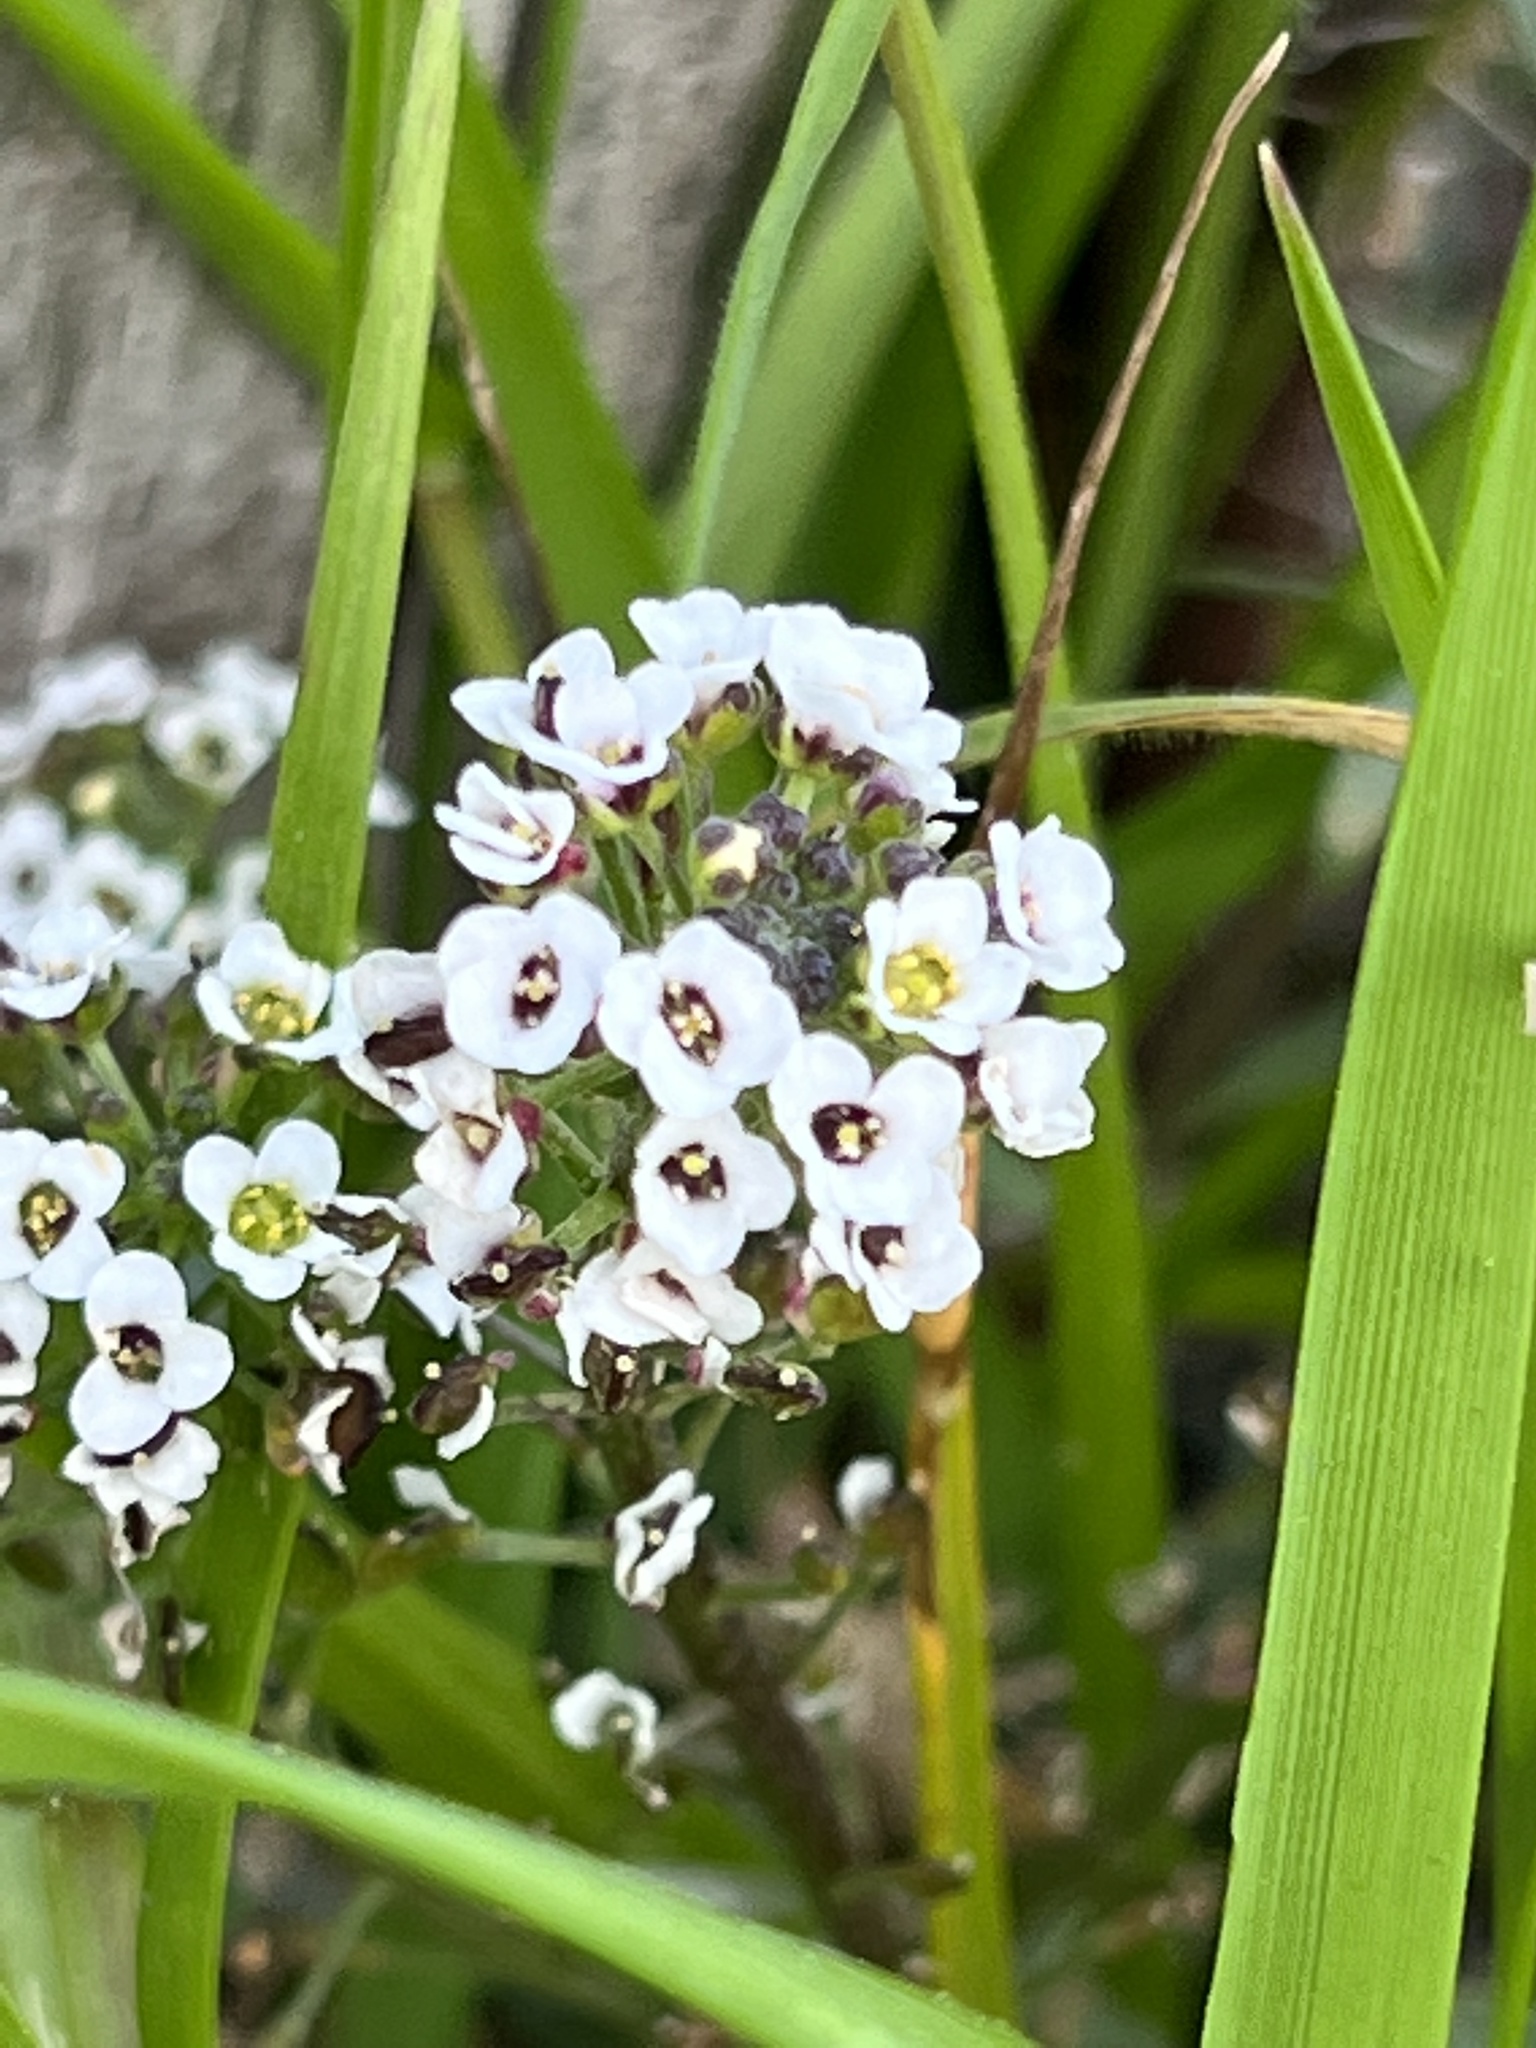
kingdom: Plantae
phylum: Tracheophyta
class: Magnoliopsida
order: Brassicales
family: Brassicaceae
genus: Lobularia
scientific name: Lobularia maritima
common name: Sweet alison
